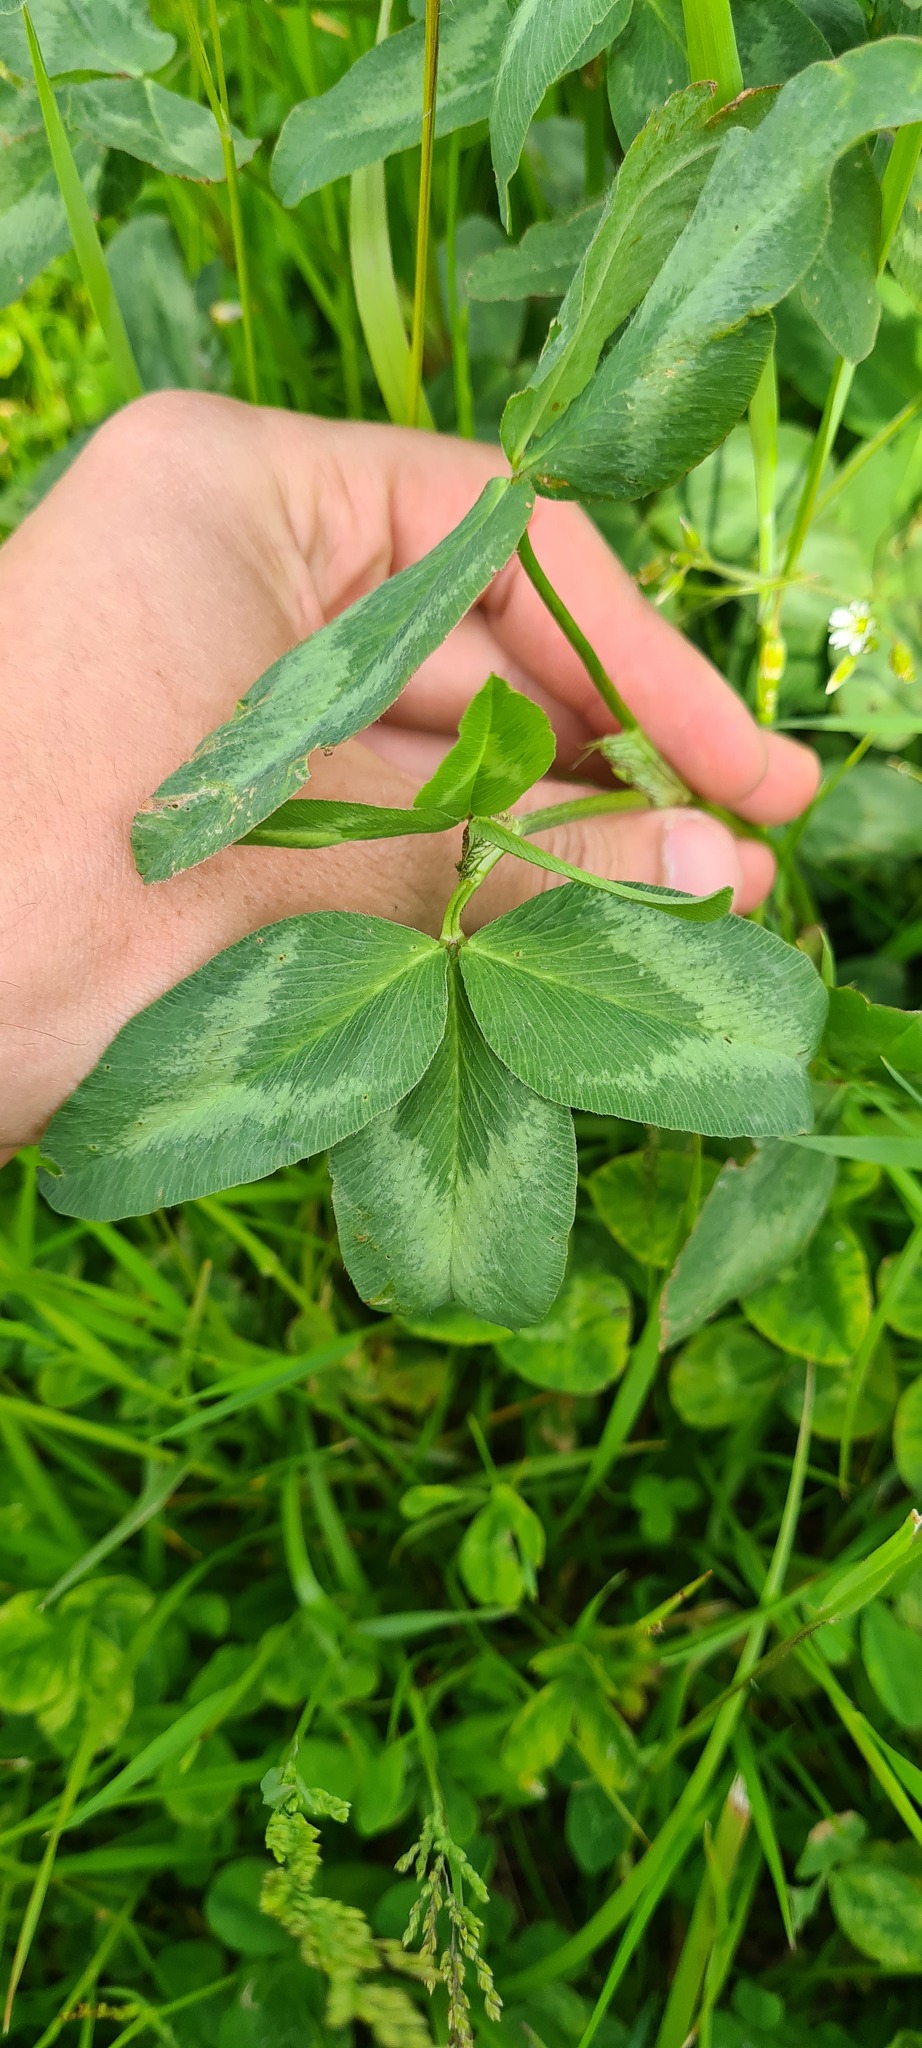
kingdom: Plantae
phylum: Tracheophyta
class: Magnoliopsida
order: Fabales
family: Fabaceae
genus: Trifolium
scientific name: Trifolium pratense
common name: Red clover
